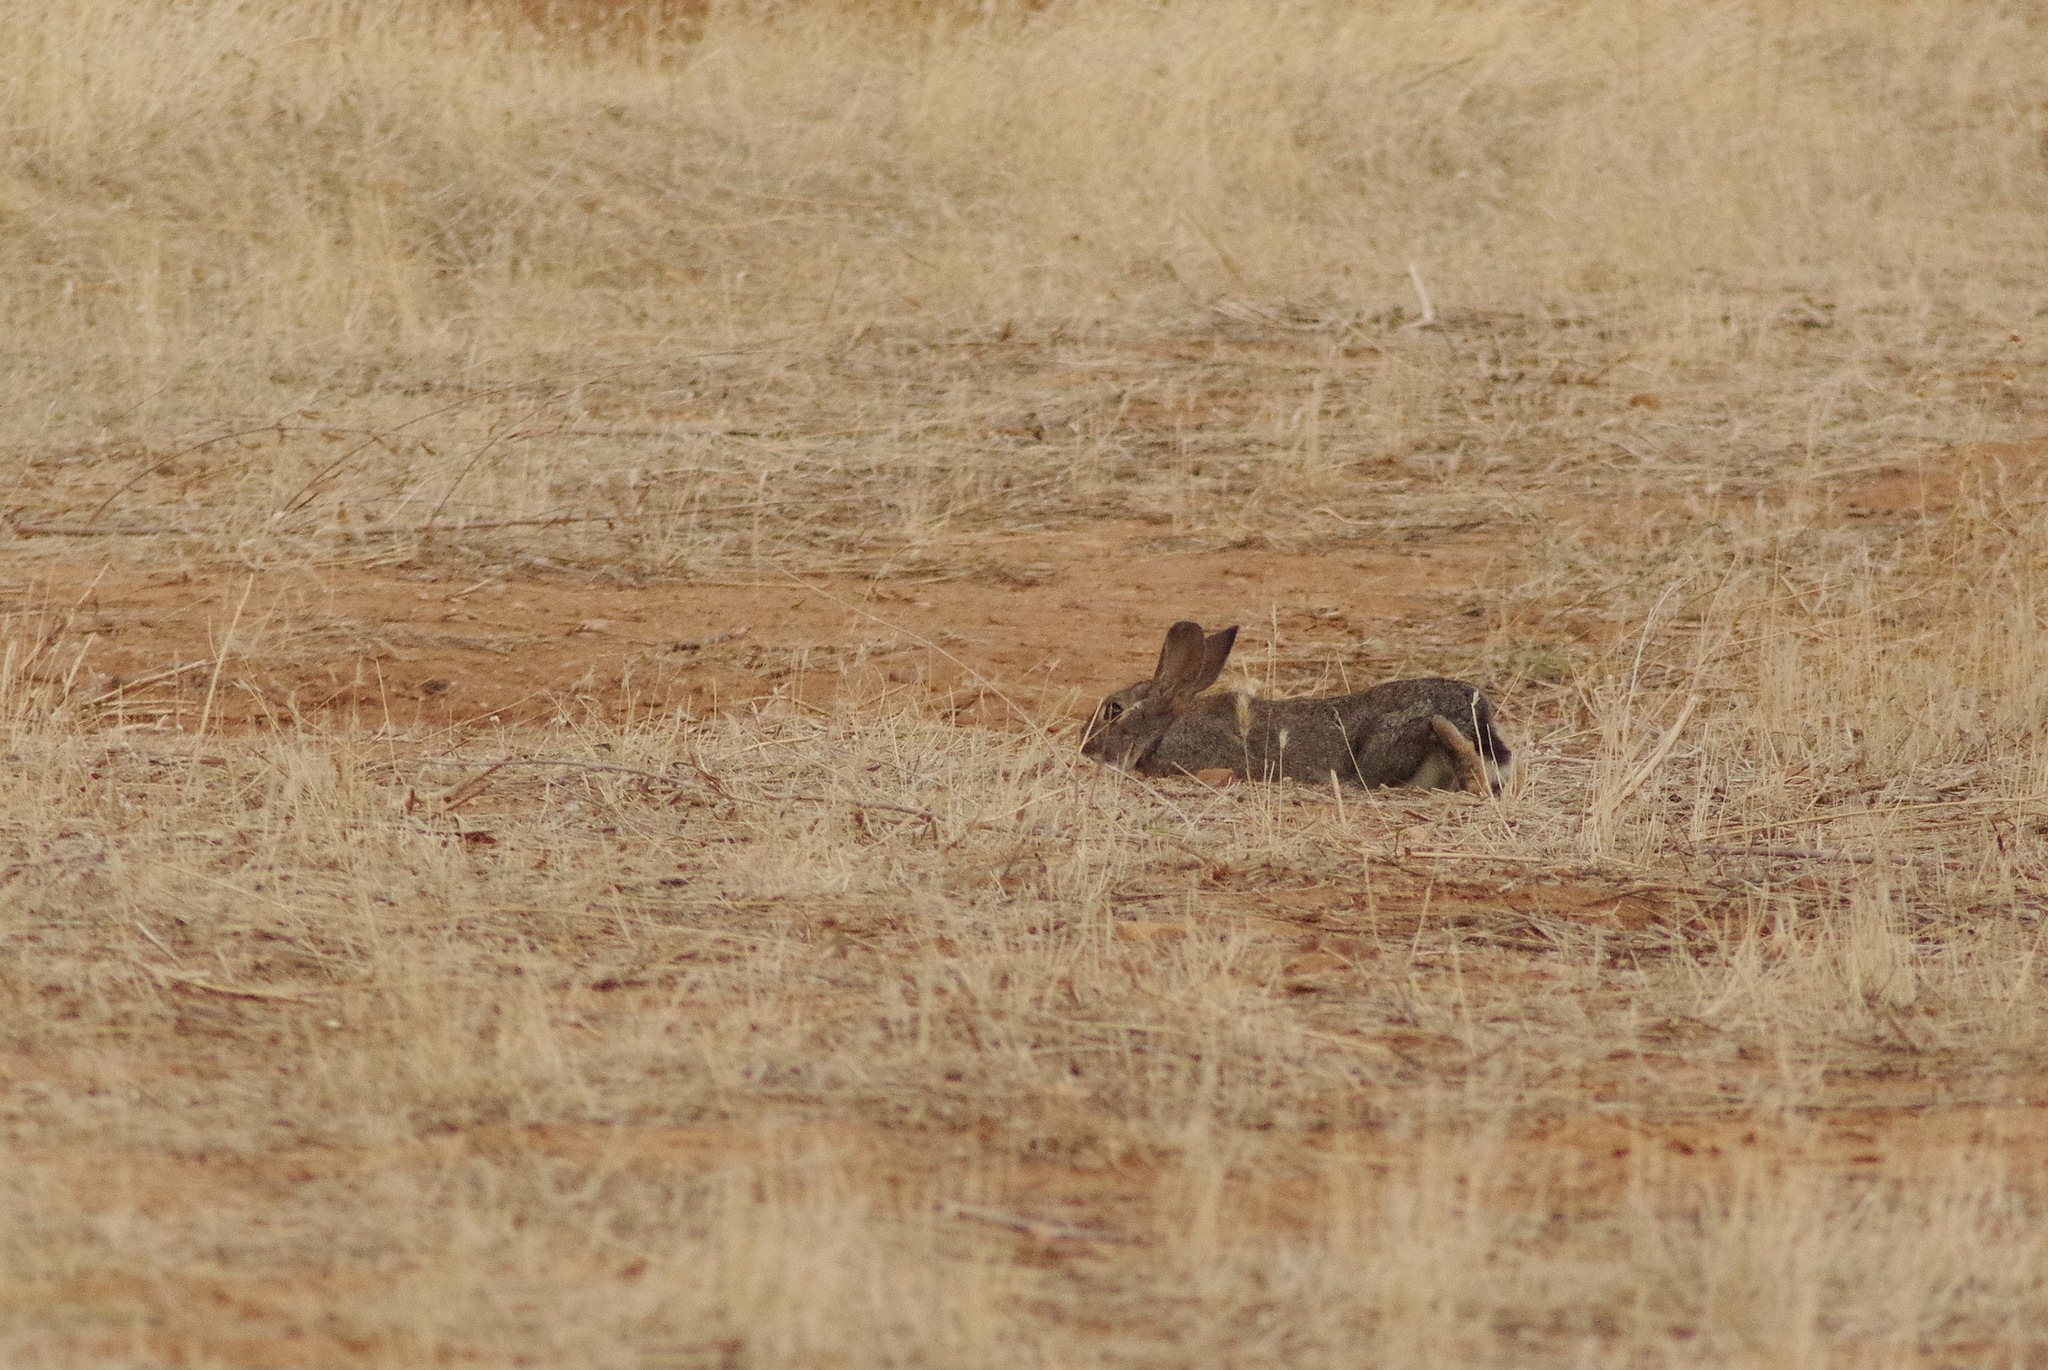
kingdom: Animalia
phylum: Chordata
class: Mammalia
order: Lagomorpha
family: Leporidae
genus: Oryctolagus
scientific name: Oryctolagus cuniculus
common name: European rabbit
